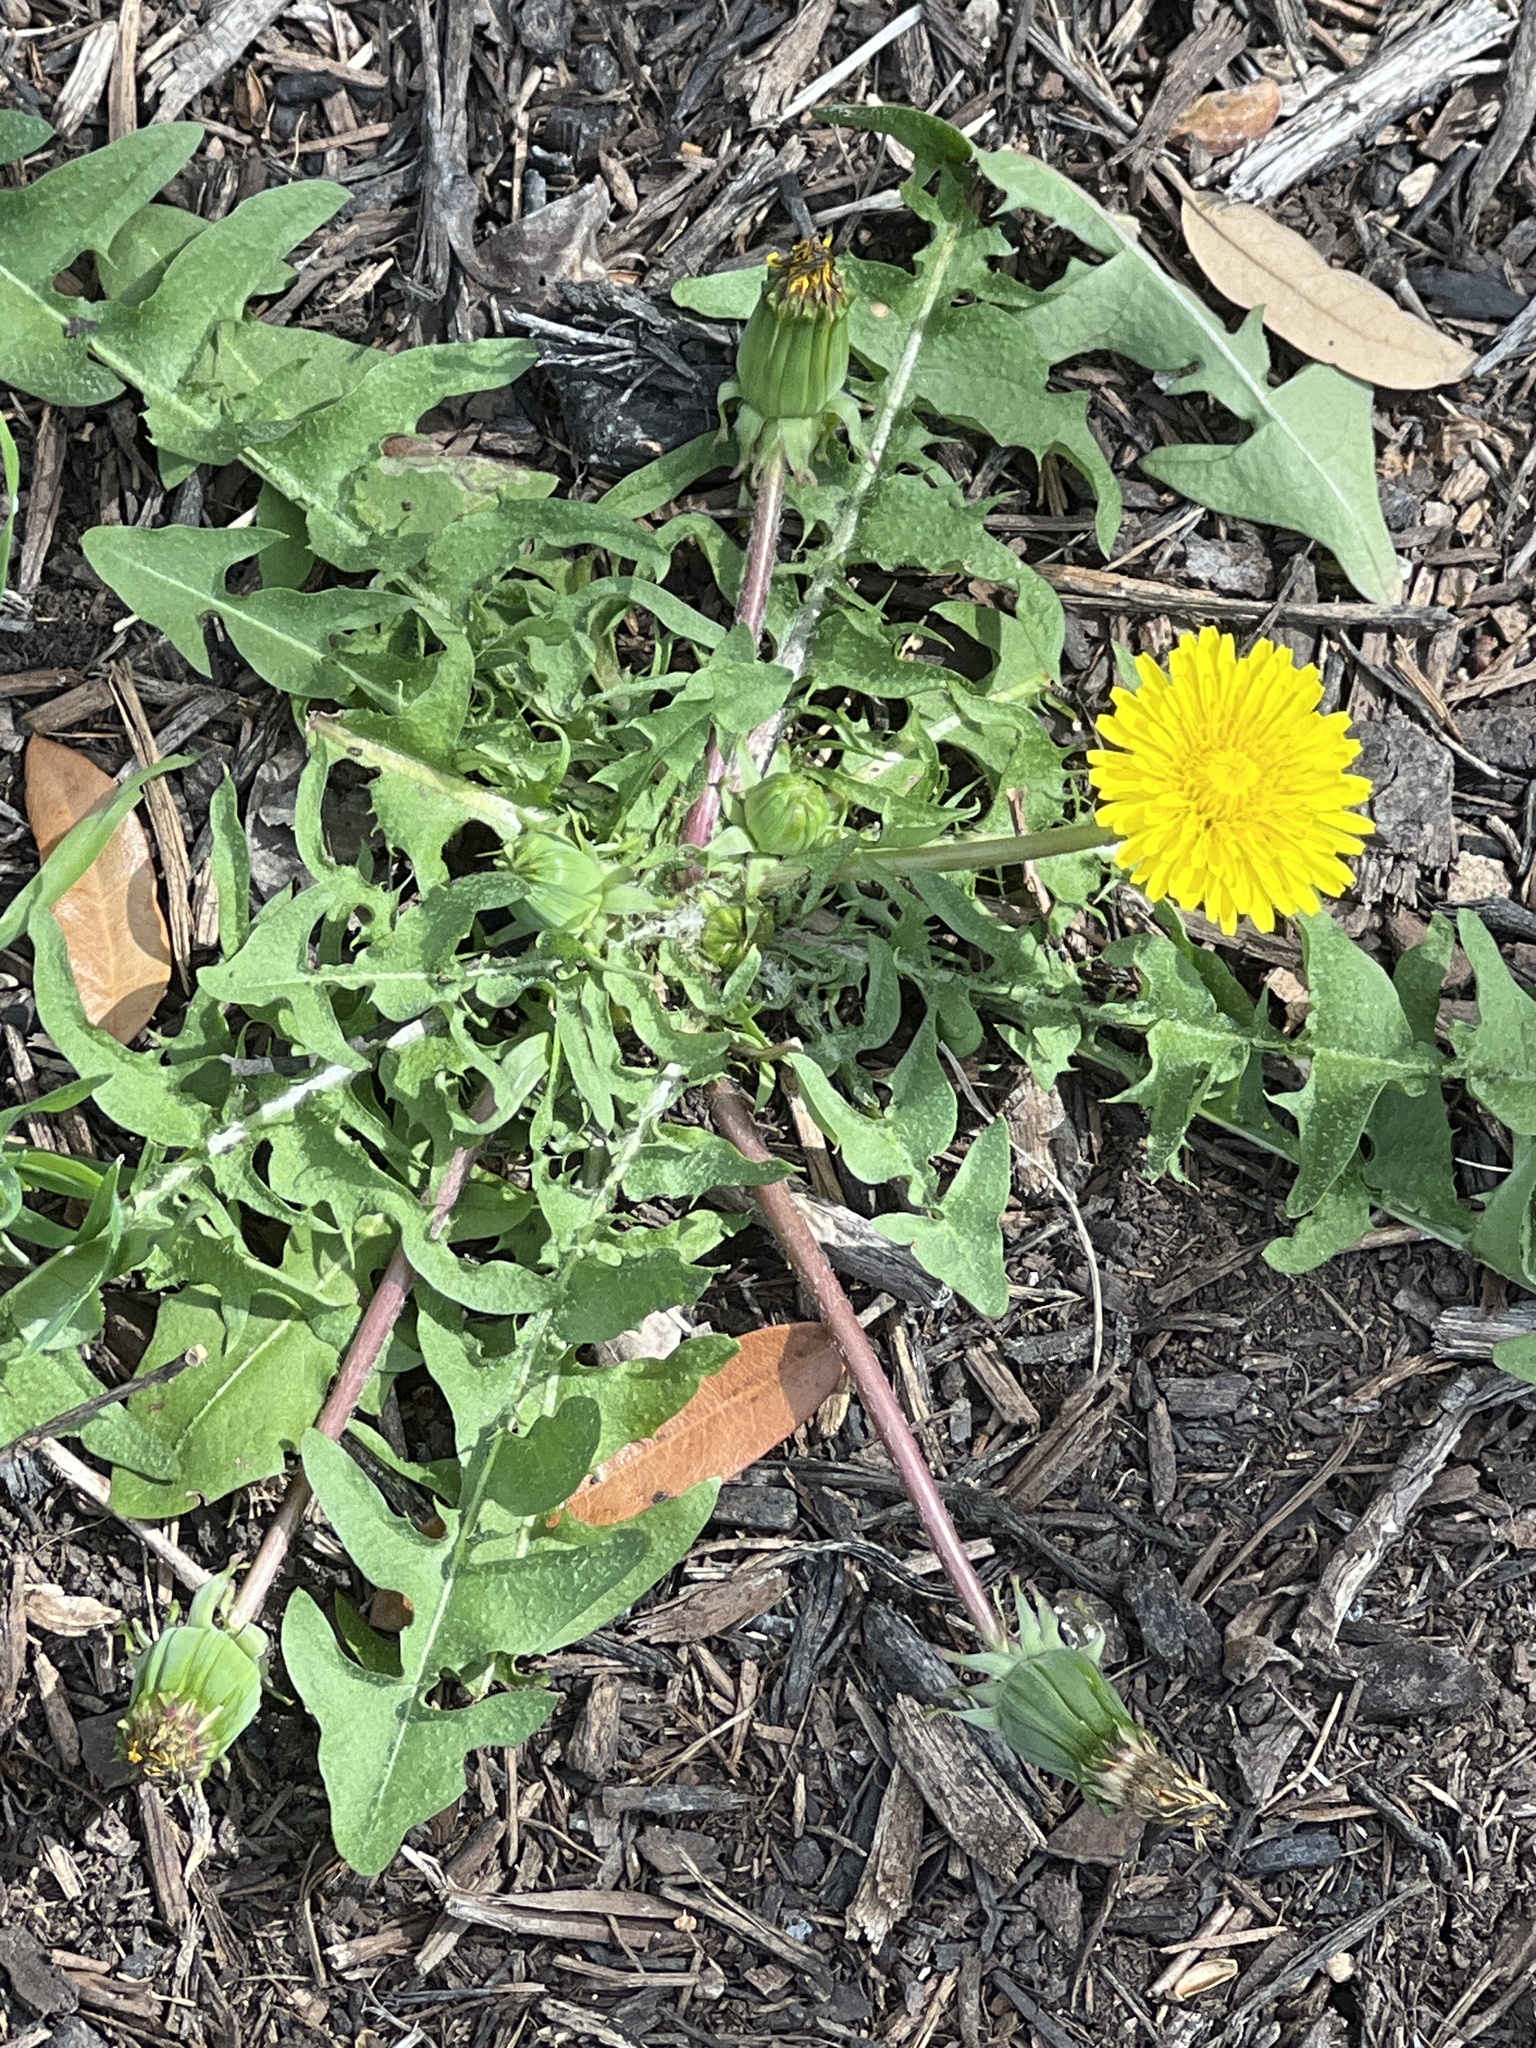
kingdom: Plantae
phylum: Tracheophyta
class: Magnoliopsida
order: Asterales
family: Asteraceae
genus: Taraxacum
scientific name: Taraxacum erythrospermum
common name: Rock dandelion
